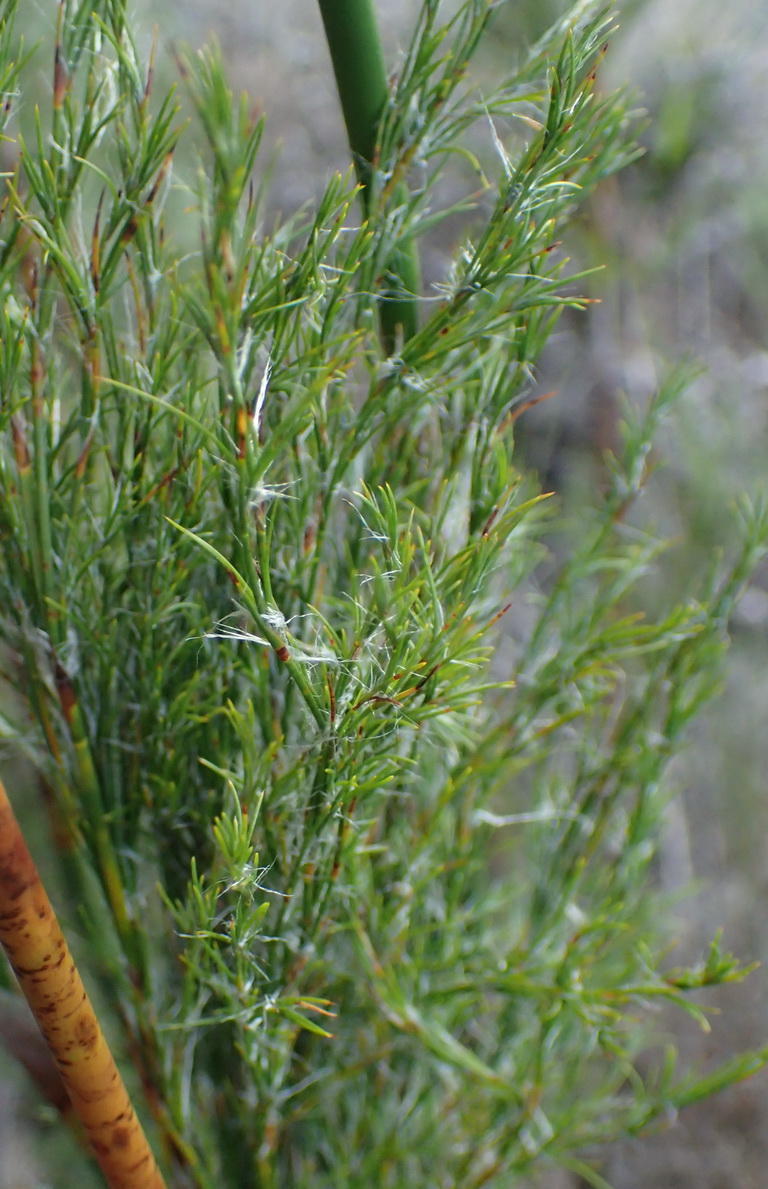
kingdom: Plantae
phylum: Tracheophyta
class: Liliopsida
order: Poales
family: Restionaceae
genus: Thamnochortus
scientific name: Thamnochortus glaber
